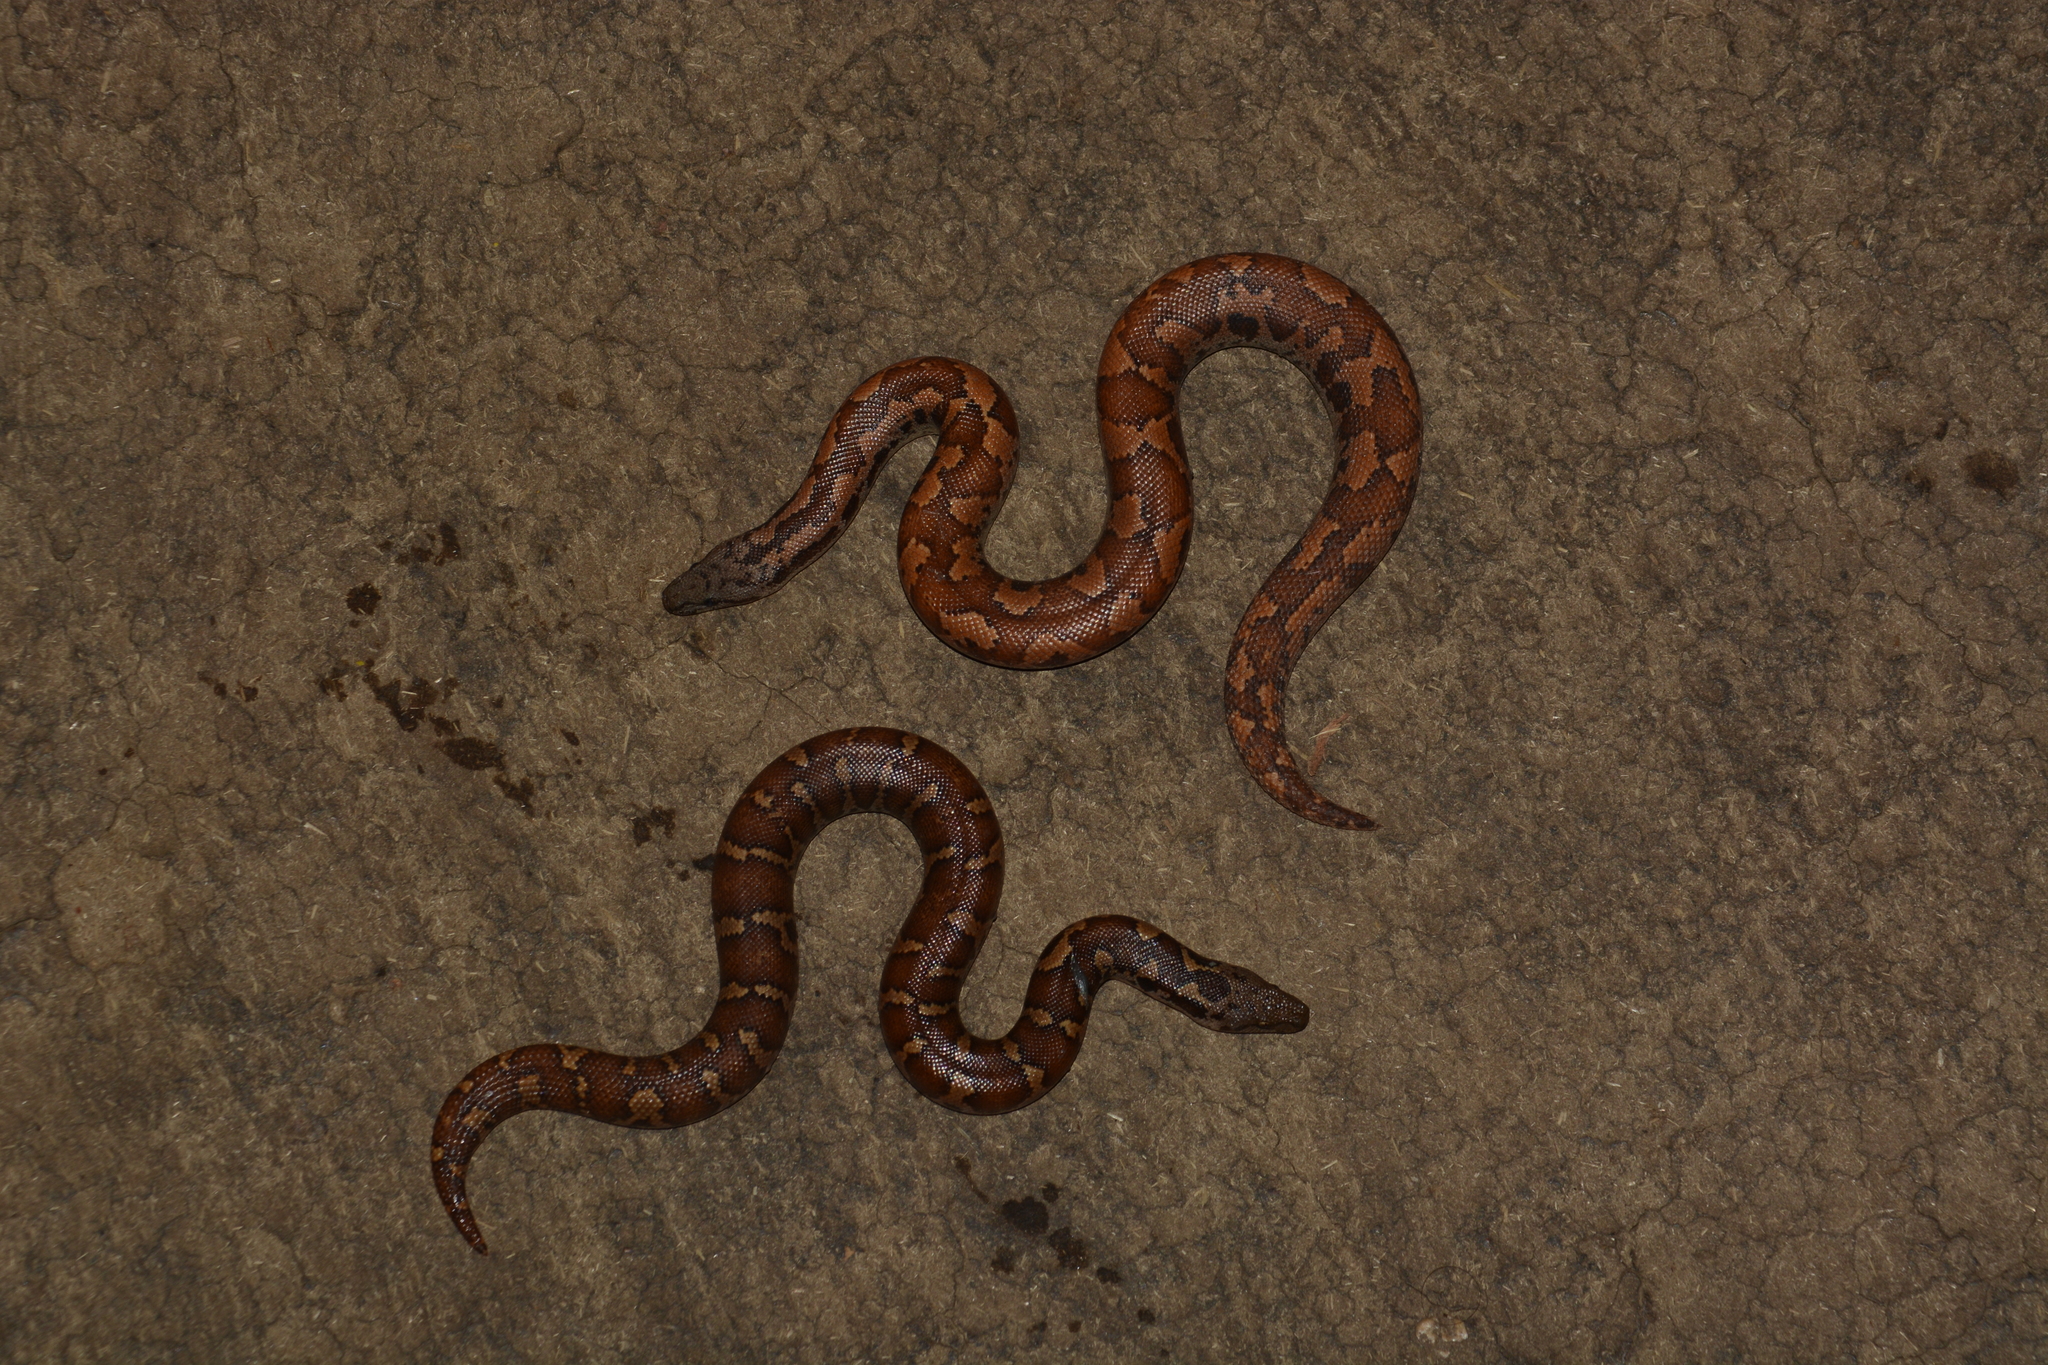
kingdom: Animalia
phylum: Chordata
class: Squamata
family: Boidae
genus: Eryx
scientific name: Eryx conicus
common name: Rough-tailed sand boa
